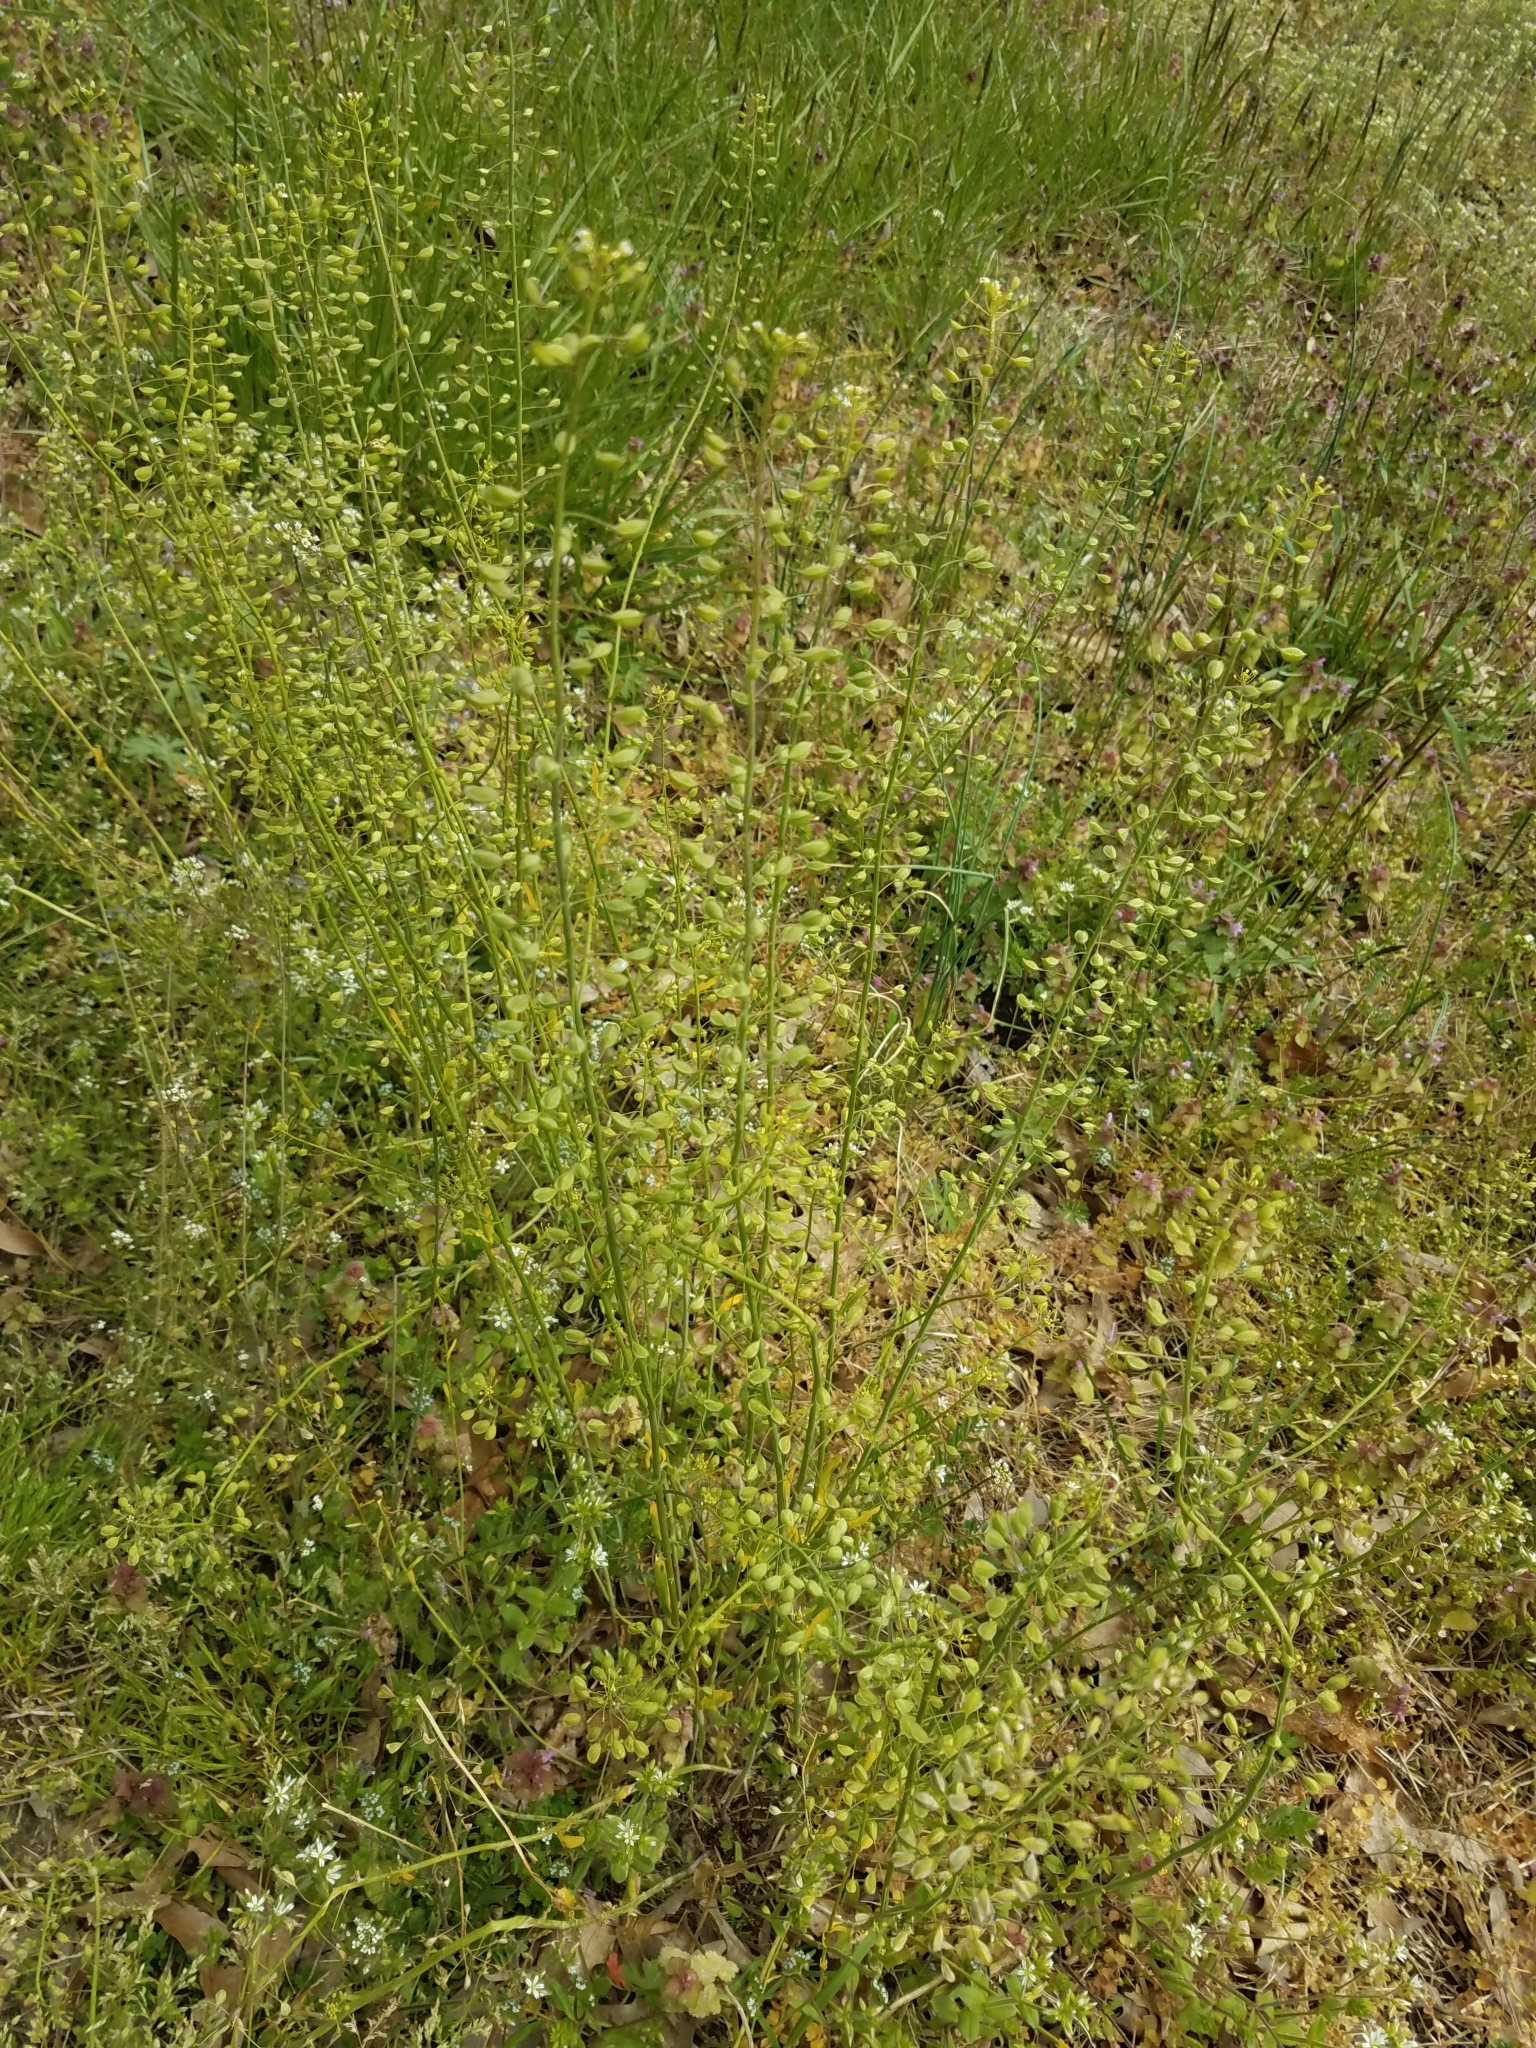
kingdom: Plantae
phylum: Tracheophyta
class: Magnoliopsida
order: Brassicales
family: Brassicaceae
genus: Mummenhoffia
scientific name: Mummenhoffia alliacea
